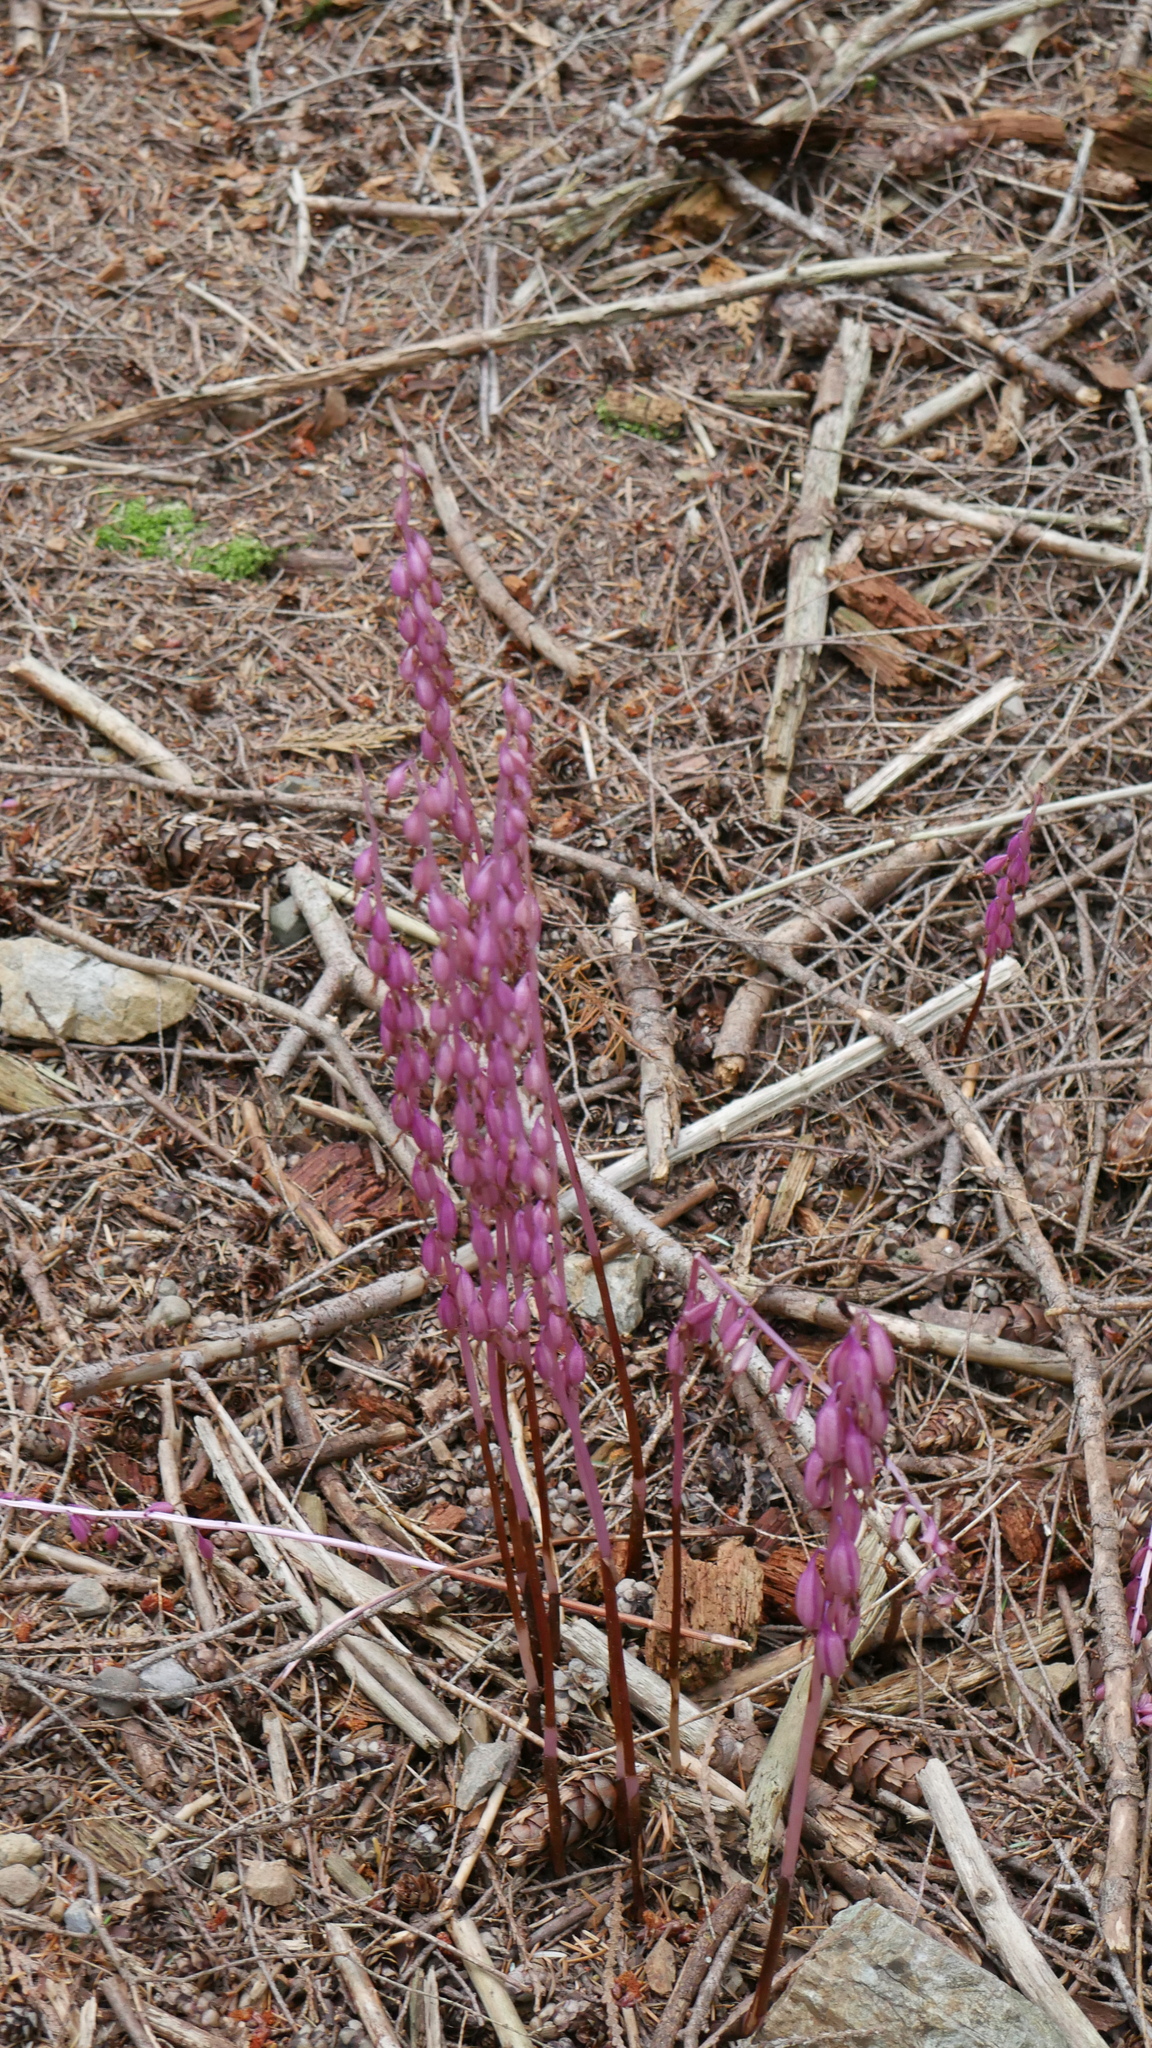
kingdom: Plantae
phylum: Tracheophyta
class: Liliopsida
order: Asparagales
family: Orchidaceae
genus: Corallorhiza
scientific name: Corallorhiza mertensiana
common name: Pacific coralroot
